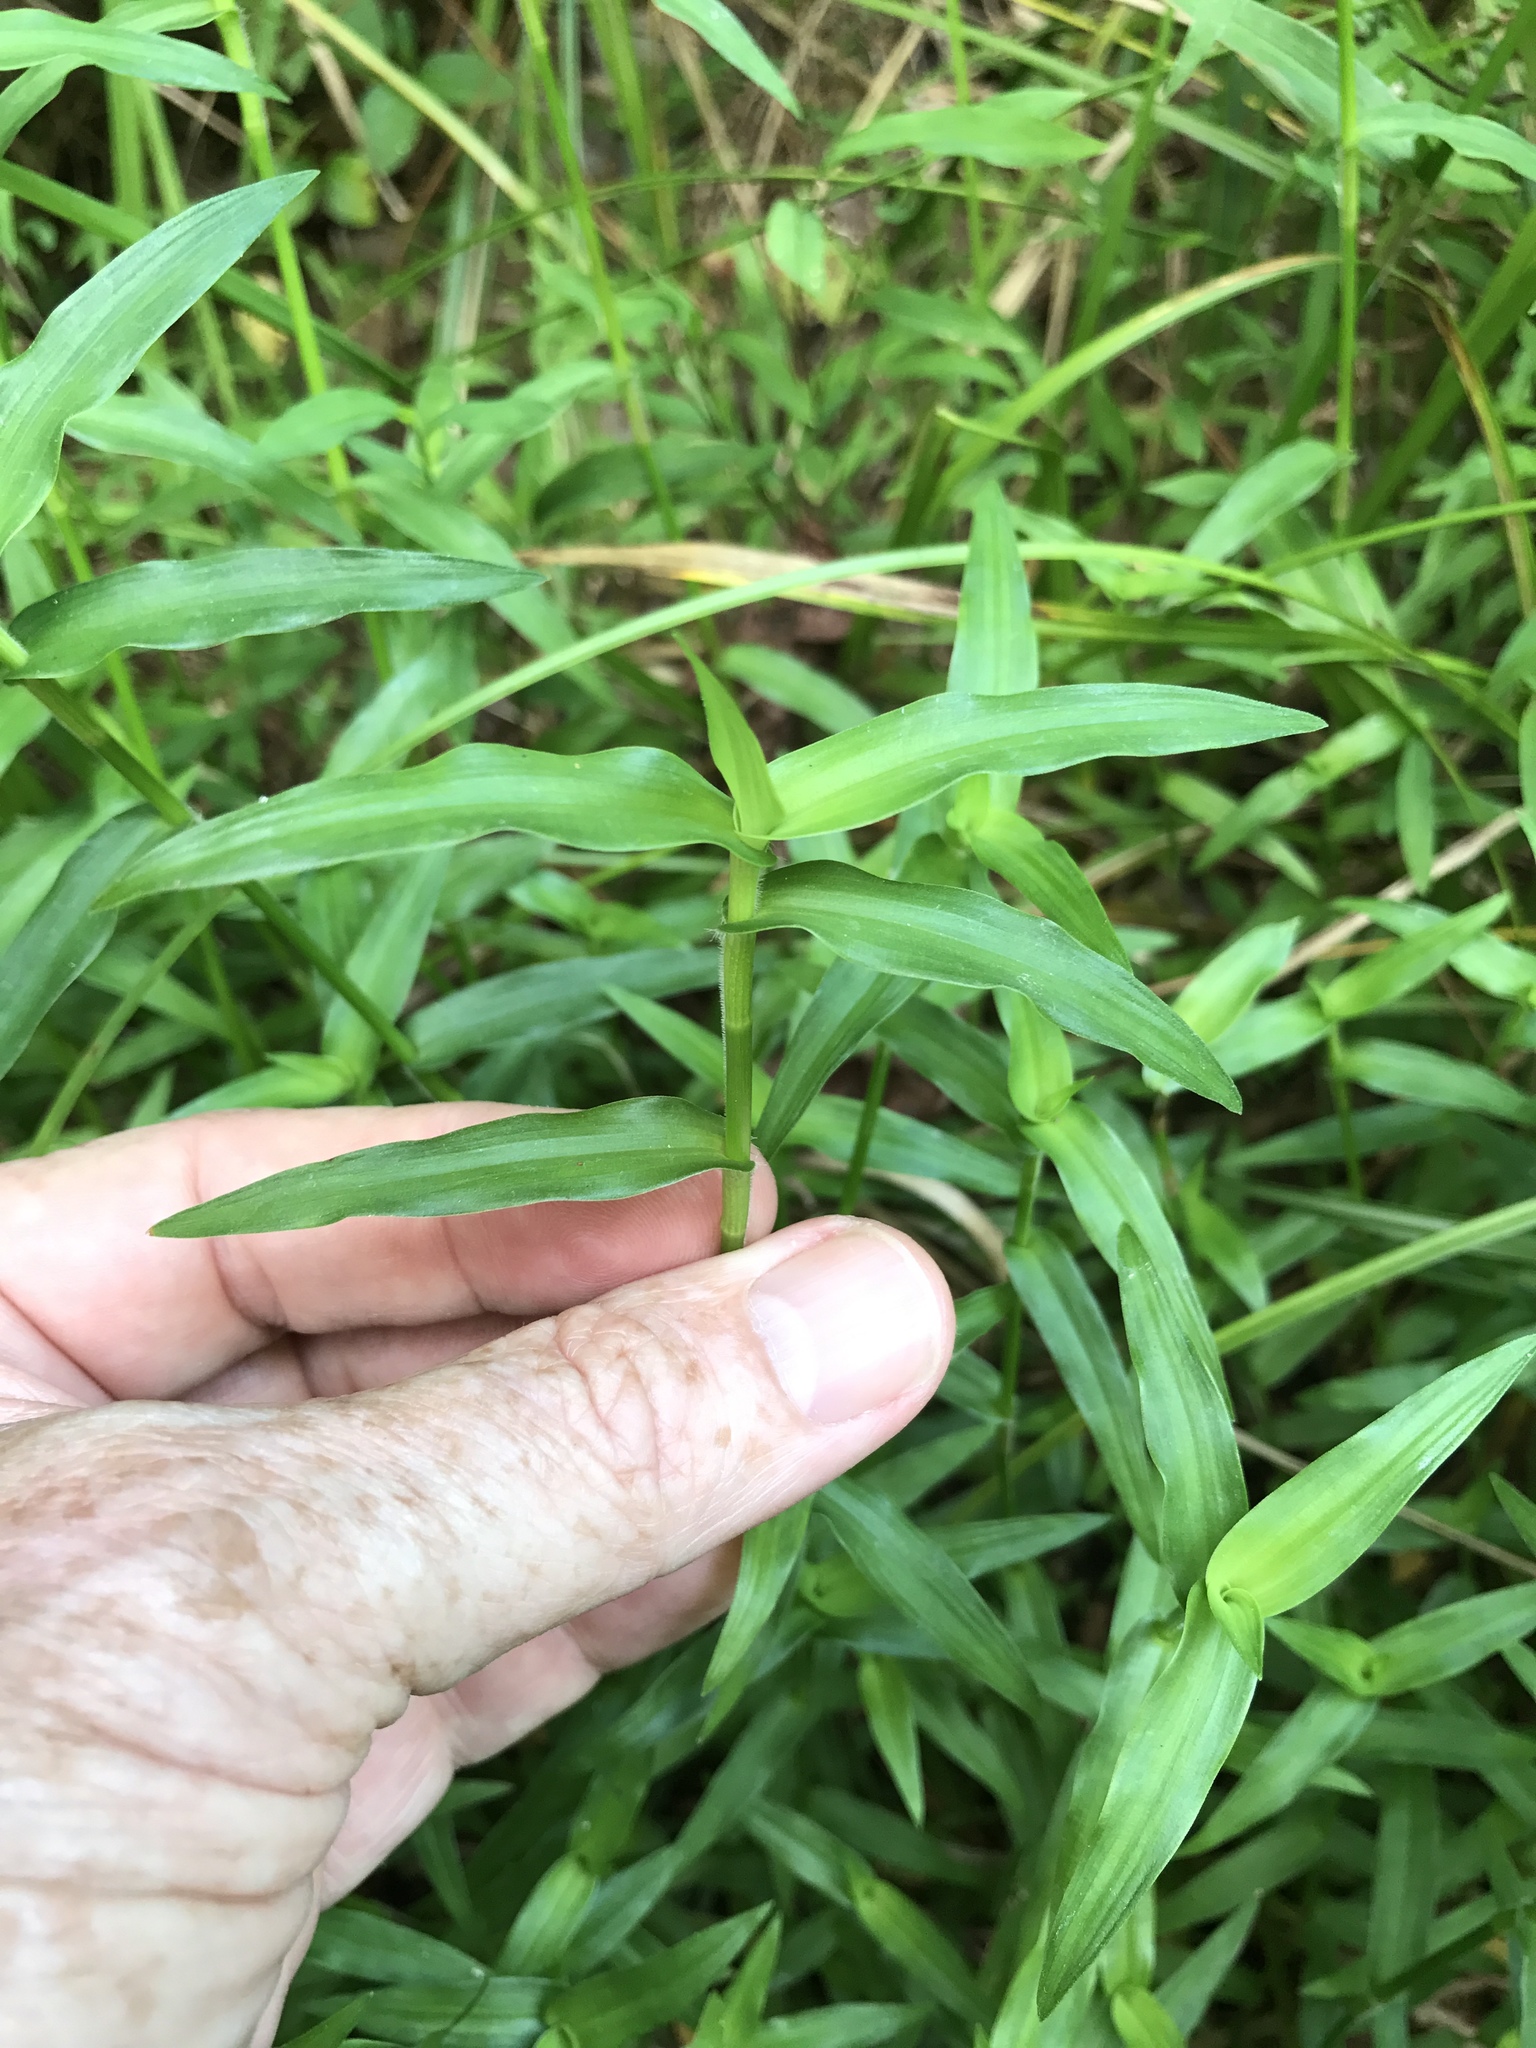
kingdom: Plantae
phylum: Tracheophyta
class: Liliopsida
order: Commelinales
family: Commelinaceae
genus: Murdannia
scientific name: Murdannia keisak
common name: Wartremoving herb
